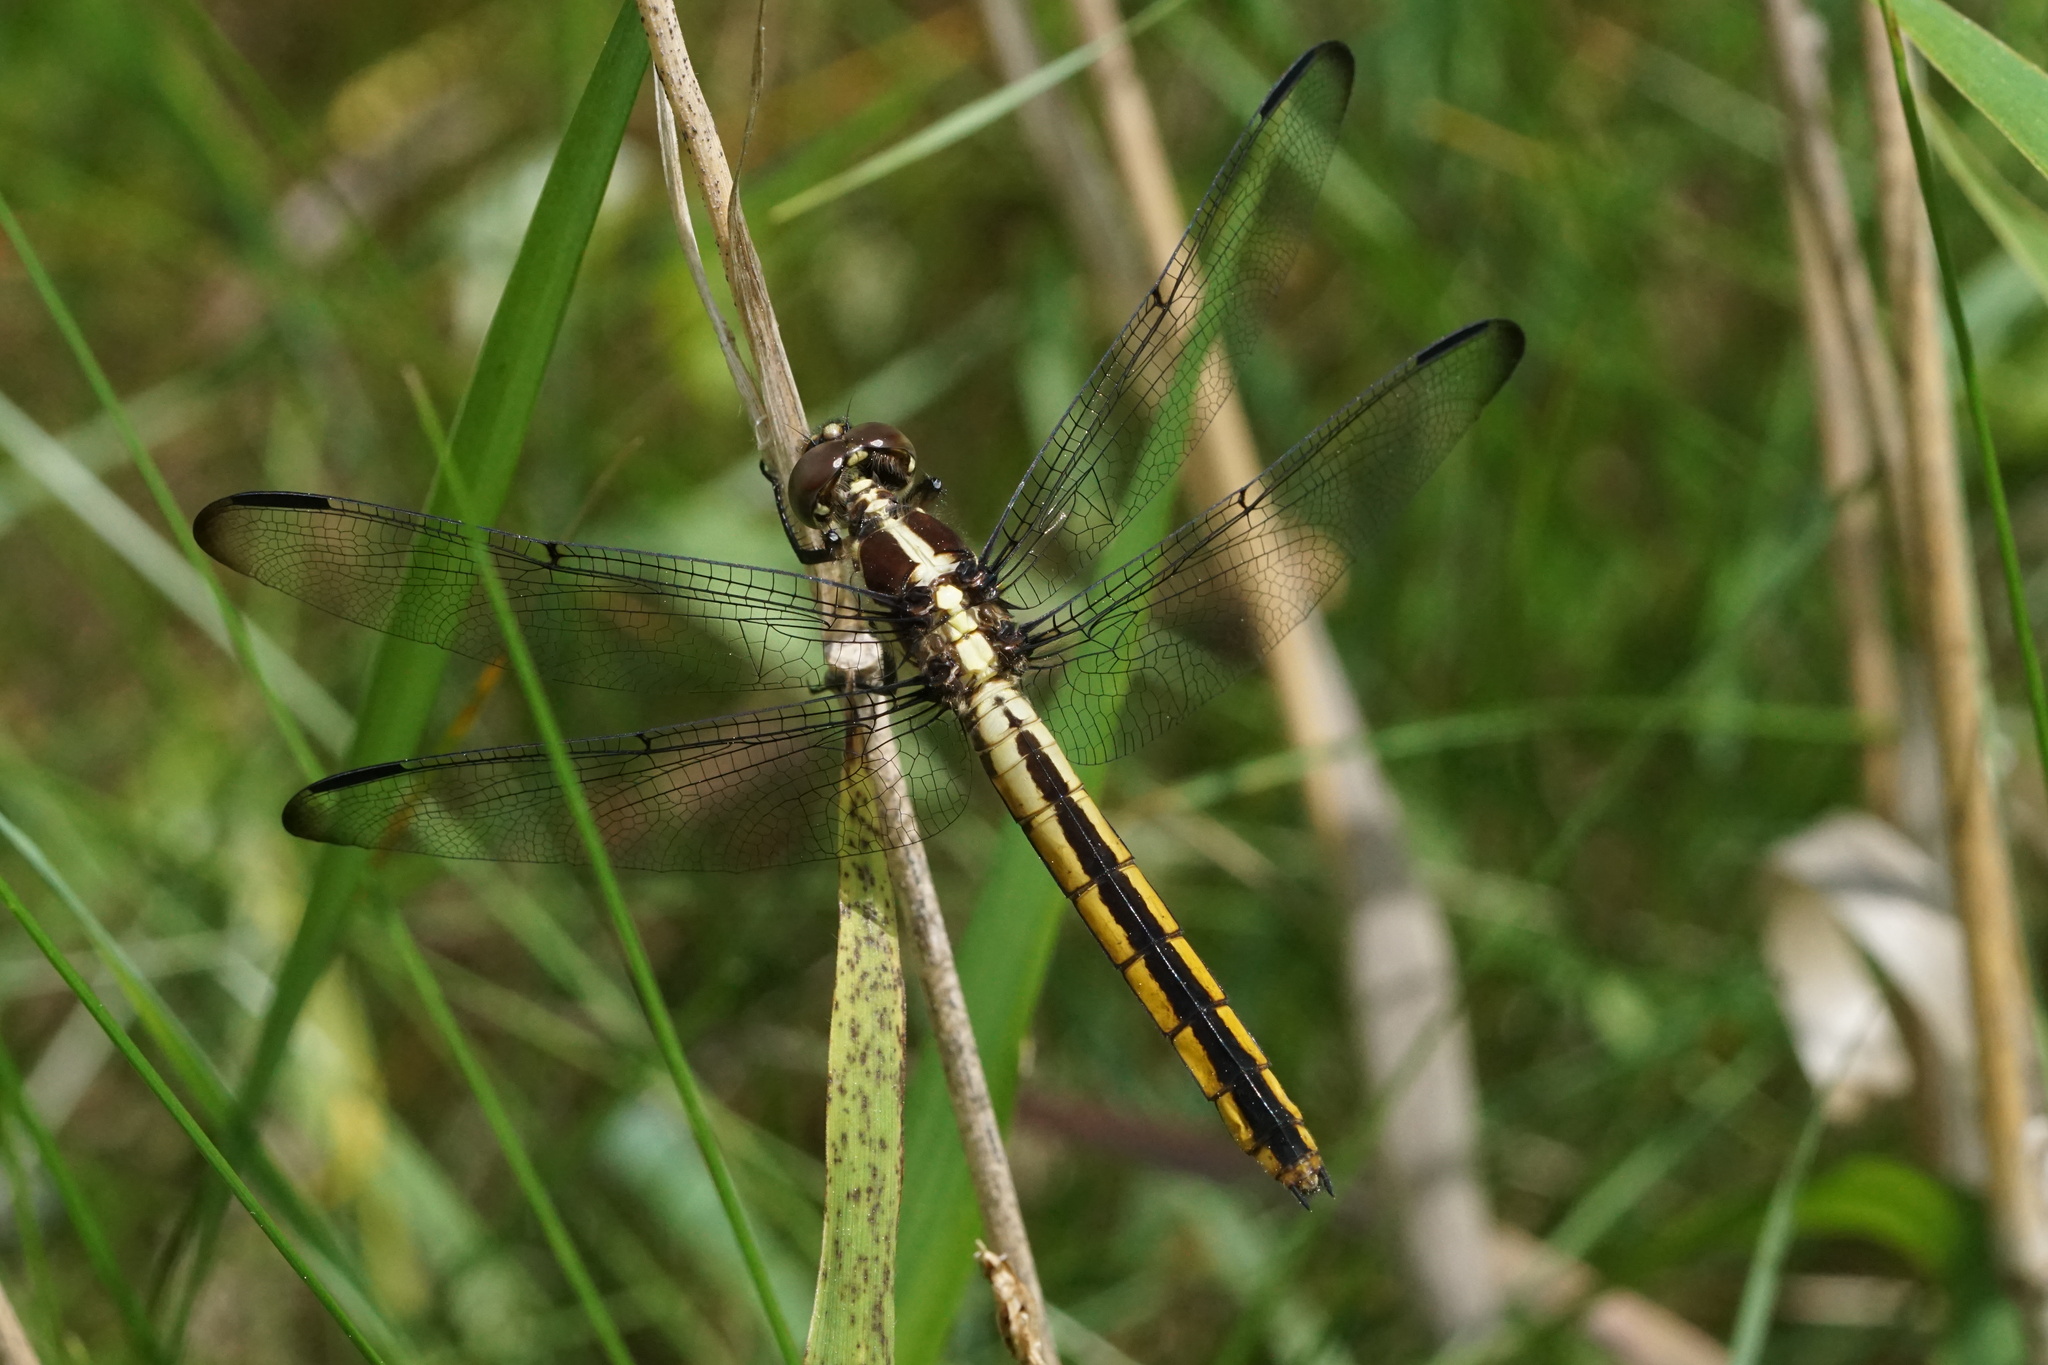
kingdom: Animalia
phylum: Arthropoda
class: Insecta
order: Odonata
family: Libellulidae
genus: Libellula
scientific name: Libellula incesta
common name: Slaty skimmer
